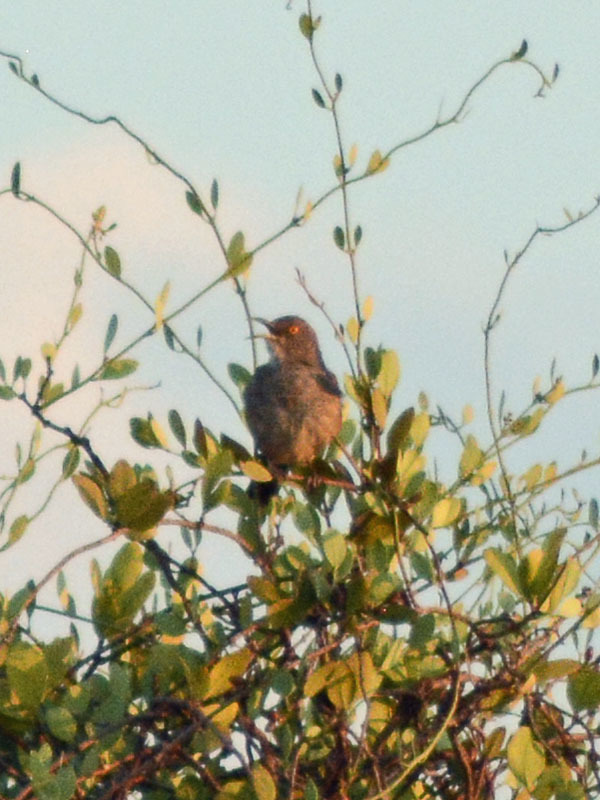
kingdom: Animalia
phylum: Chordata
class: Aves
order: Passeriformes
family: Mimidae
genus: Toxostoma
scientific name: Toxostoma curvirostre
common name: Curve-billed thrasher
